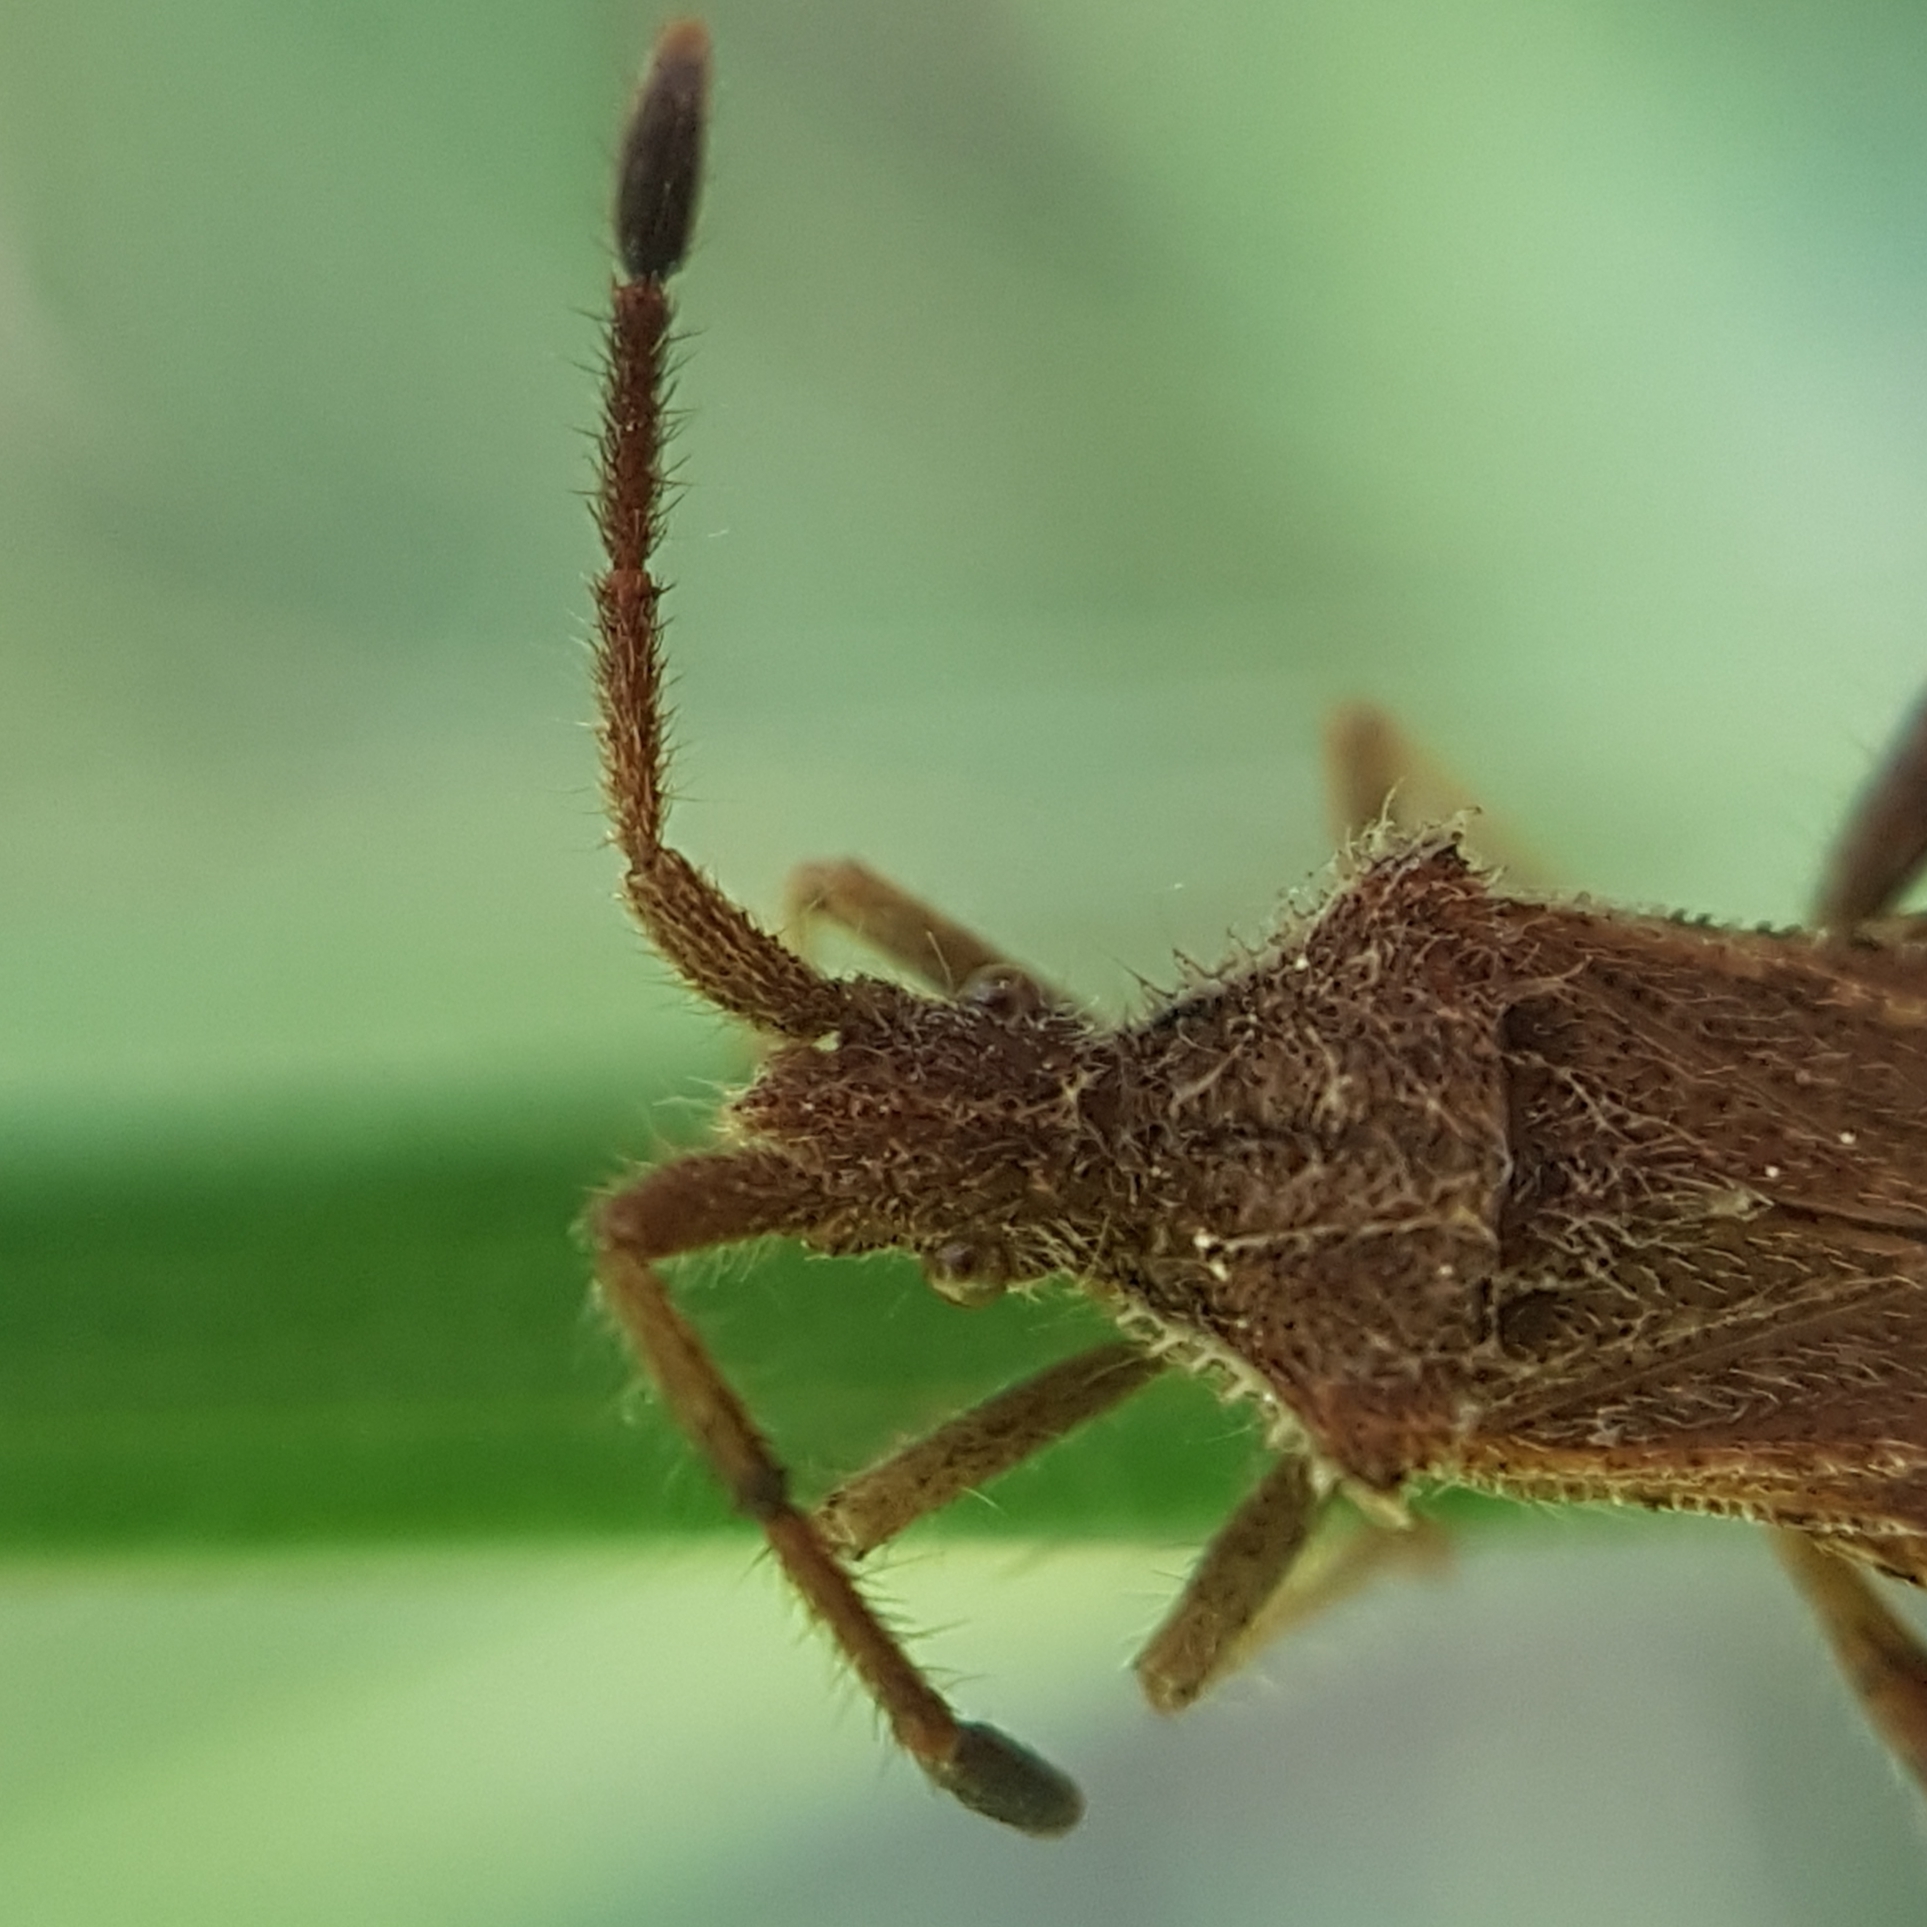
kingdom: Animalia
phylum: Arthropoda
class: Insecta
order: Hemiptera
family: Coreidae
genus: Coriomeris
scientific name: Coriomeris hirticornis
